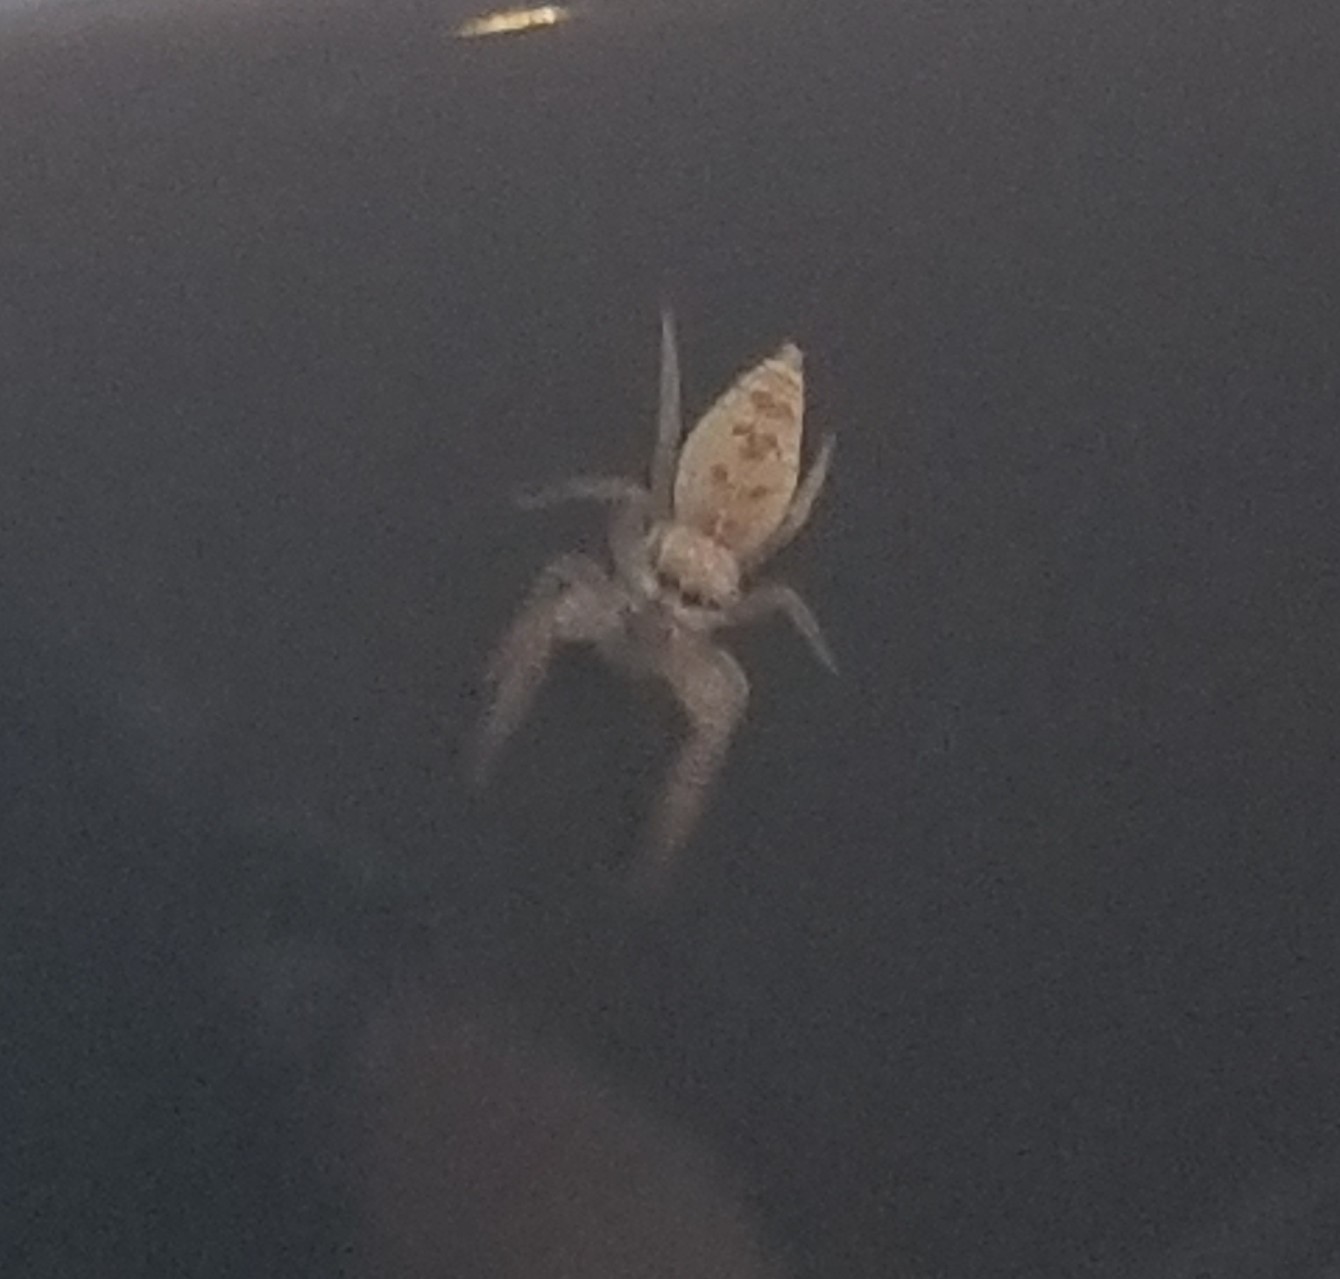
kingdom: Animalia
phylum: Arthropoda
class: Arachnida
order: Araneae
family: Salticidae
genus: Hentzia
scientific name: Hentzia mitrata
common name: White-jawed jumping spider
